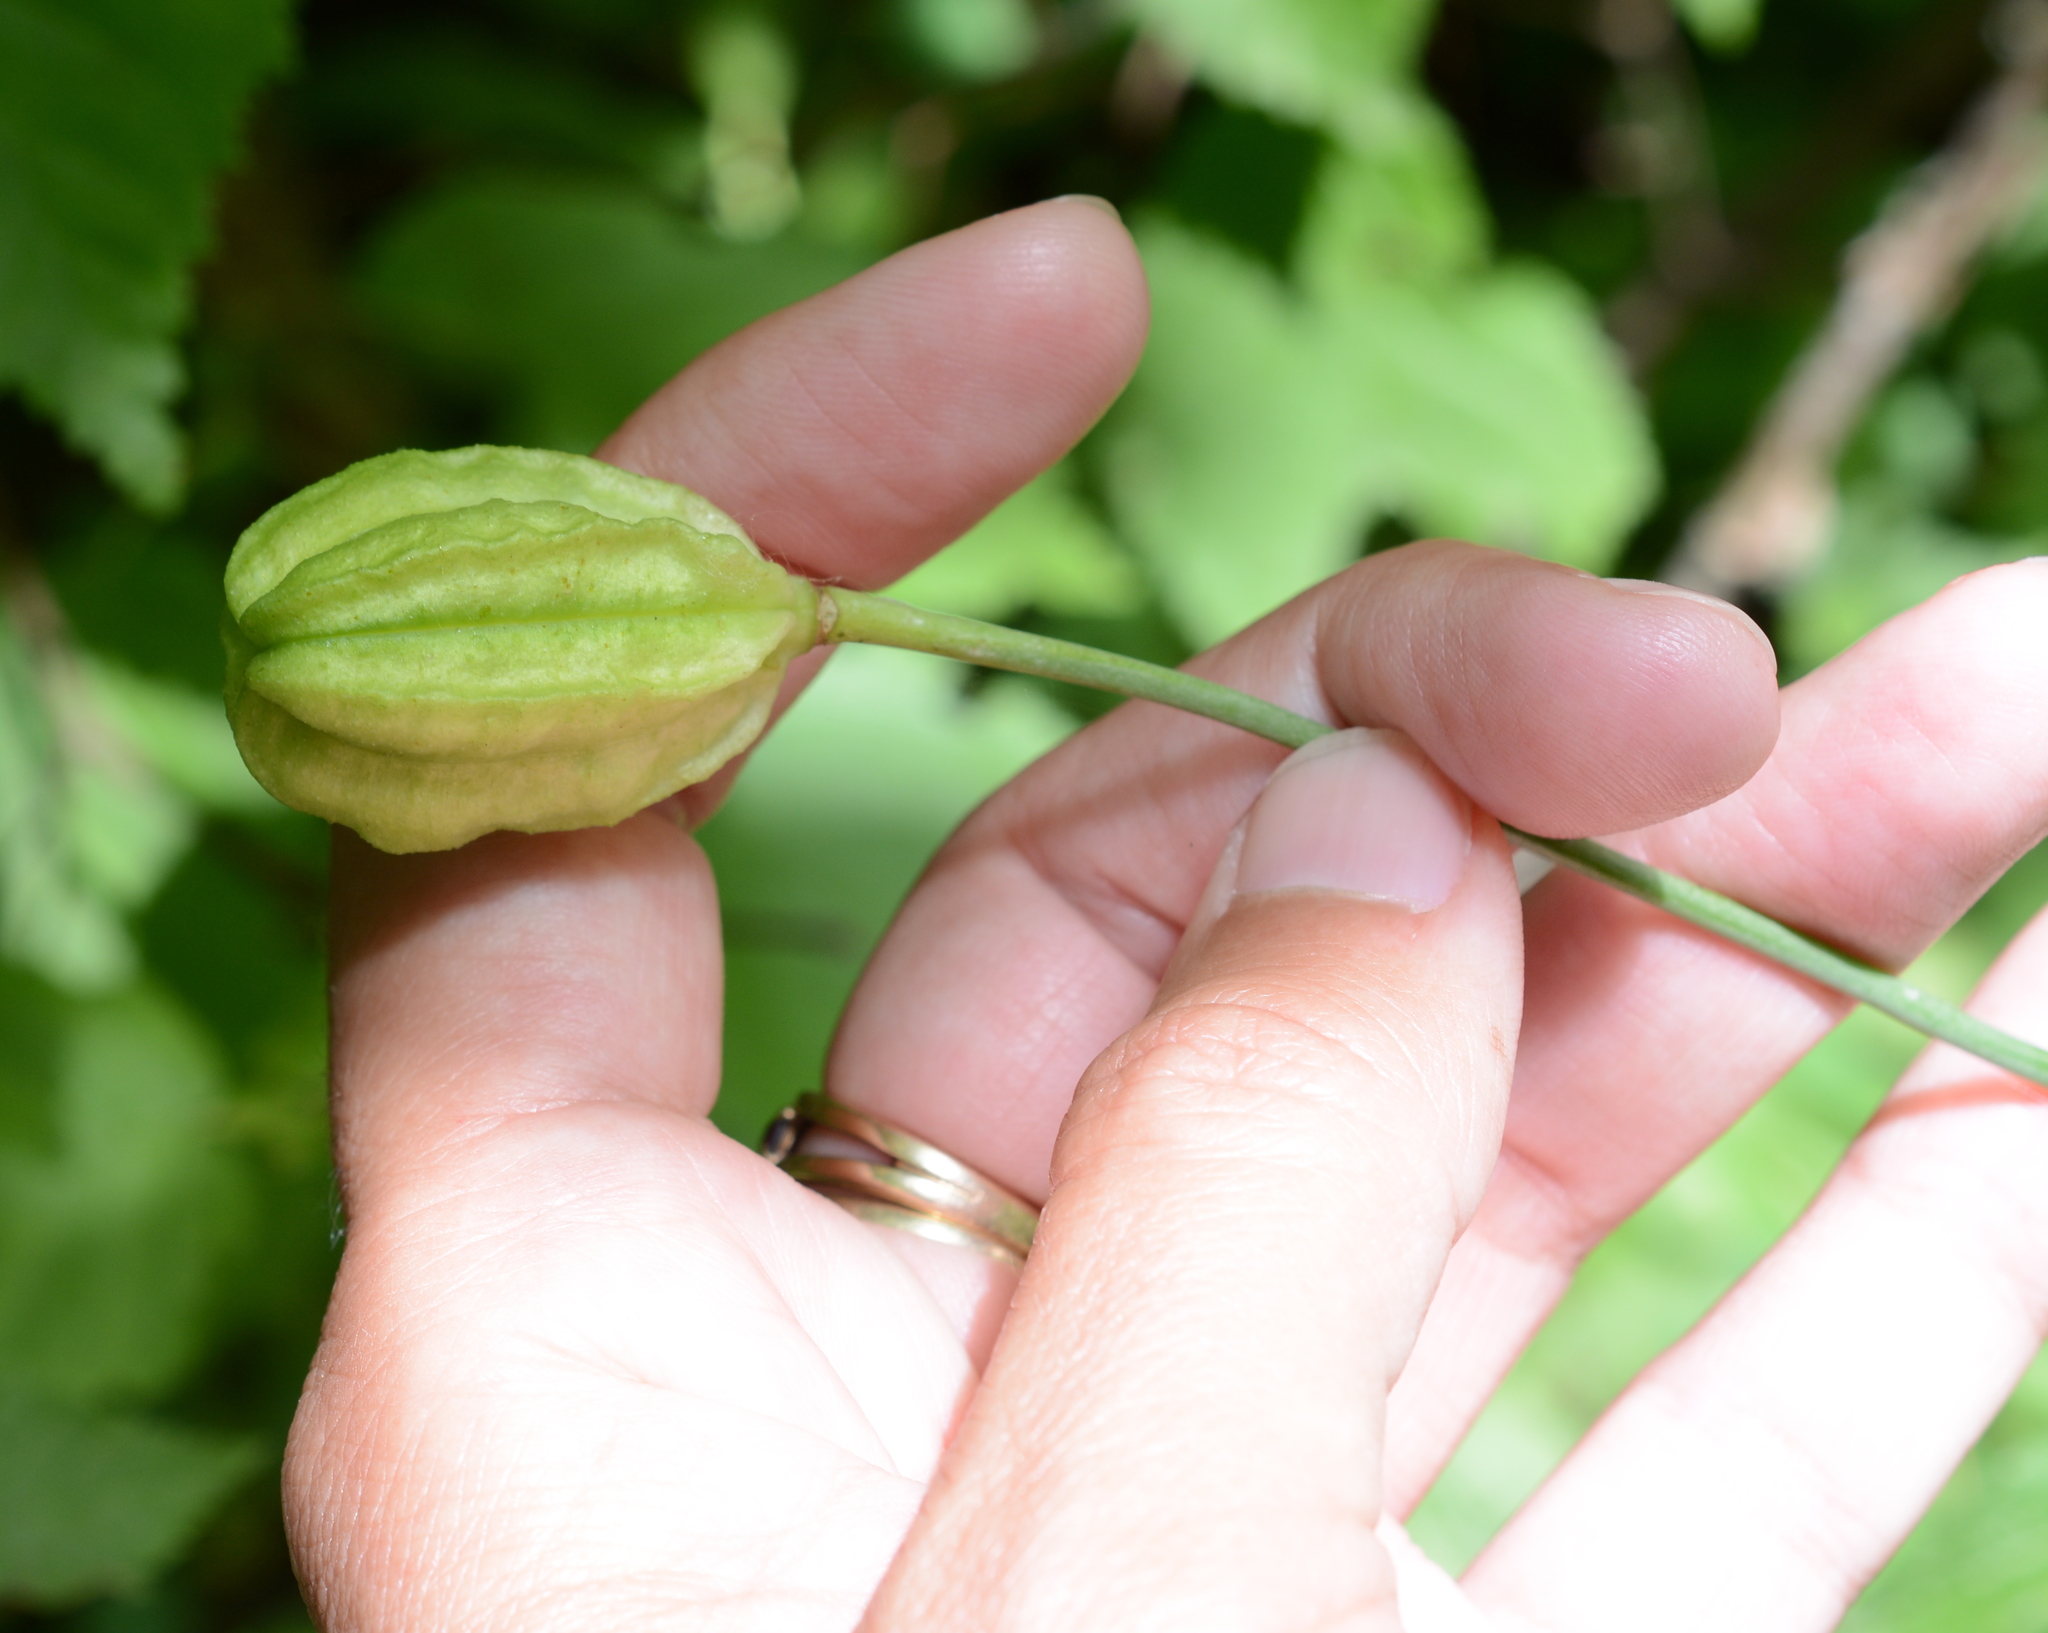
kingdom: Plantae
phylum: Tracheophyta
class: Liliopsida
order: Liliales
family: Liliaceae
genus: Lilium
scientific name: Lilium columbianum
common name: Columbia lily
